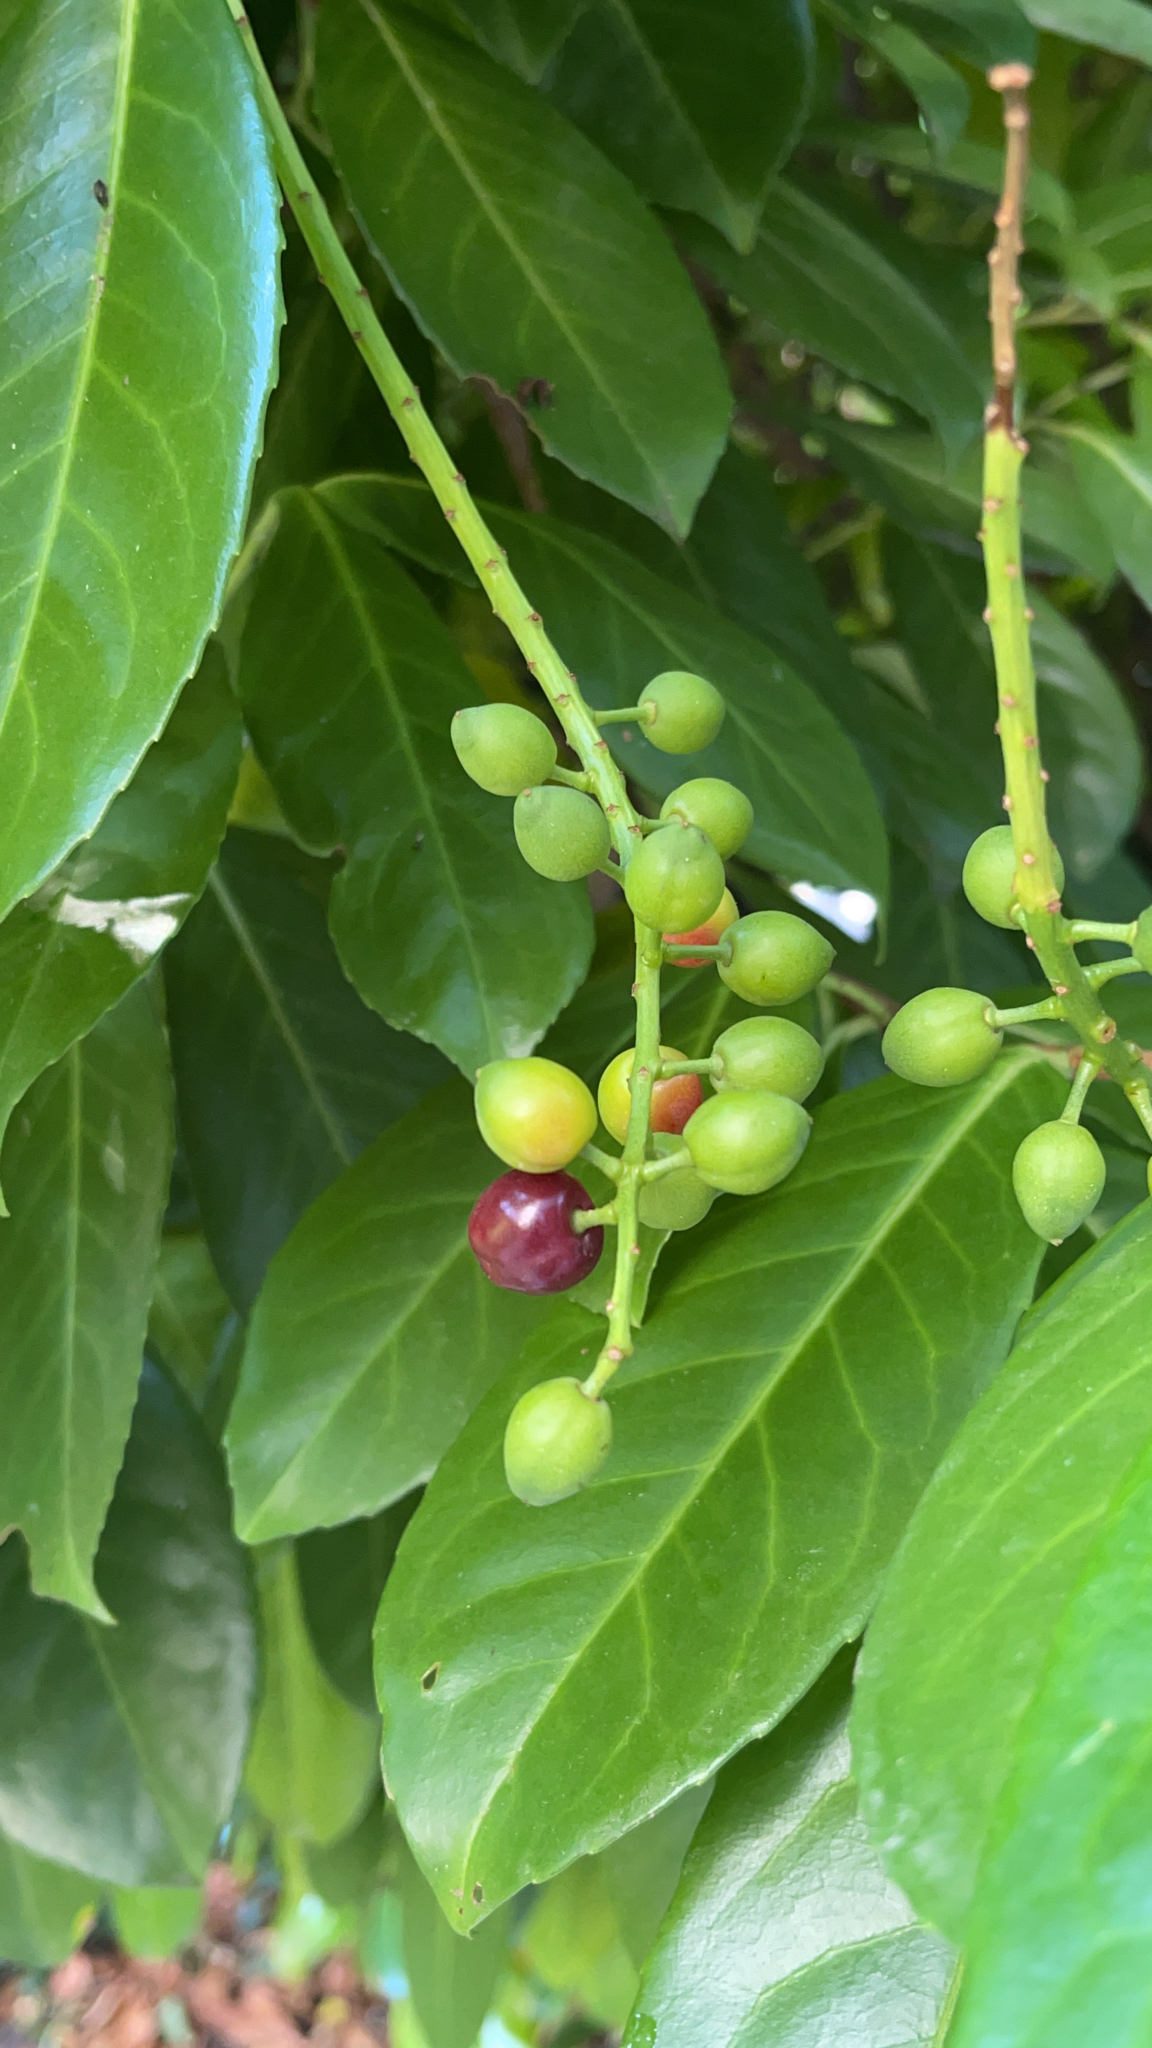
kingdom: Plantae
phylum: Tracheophyta
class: Magnoliopsida
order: Rosales
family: Rosaceae
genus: Prunus
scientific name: Prunus laurocerasus
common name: Cherry laurel
